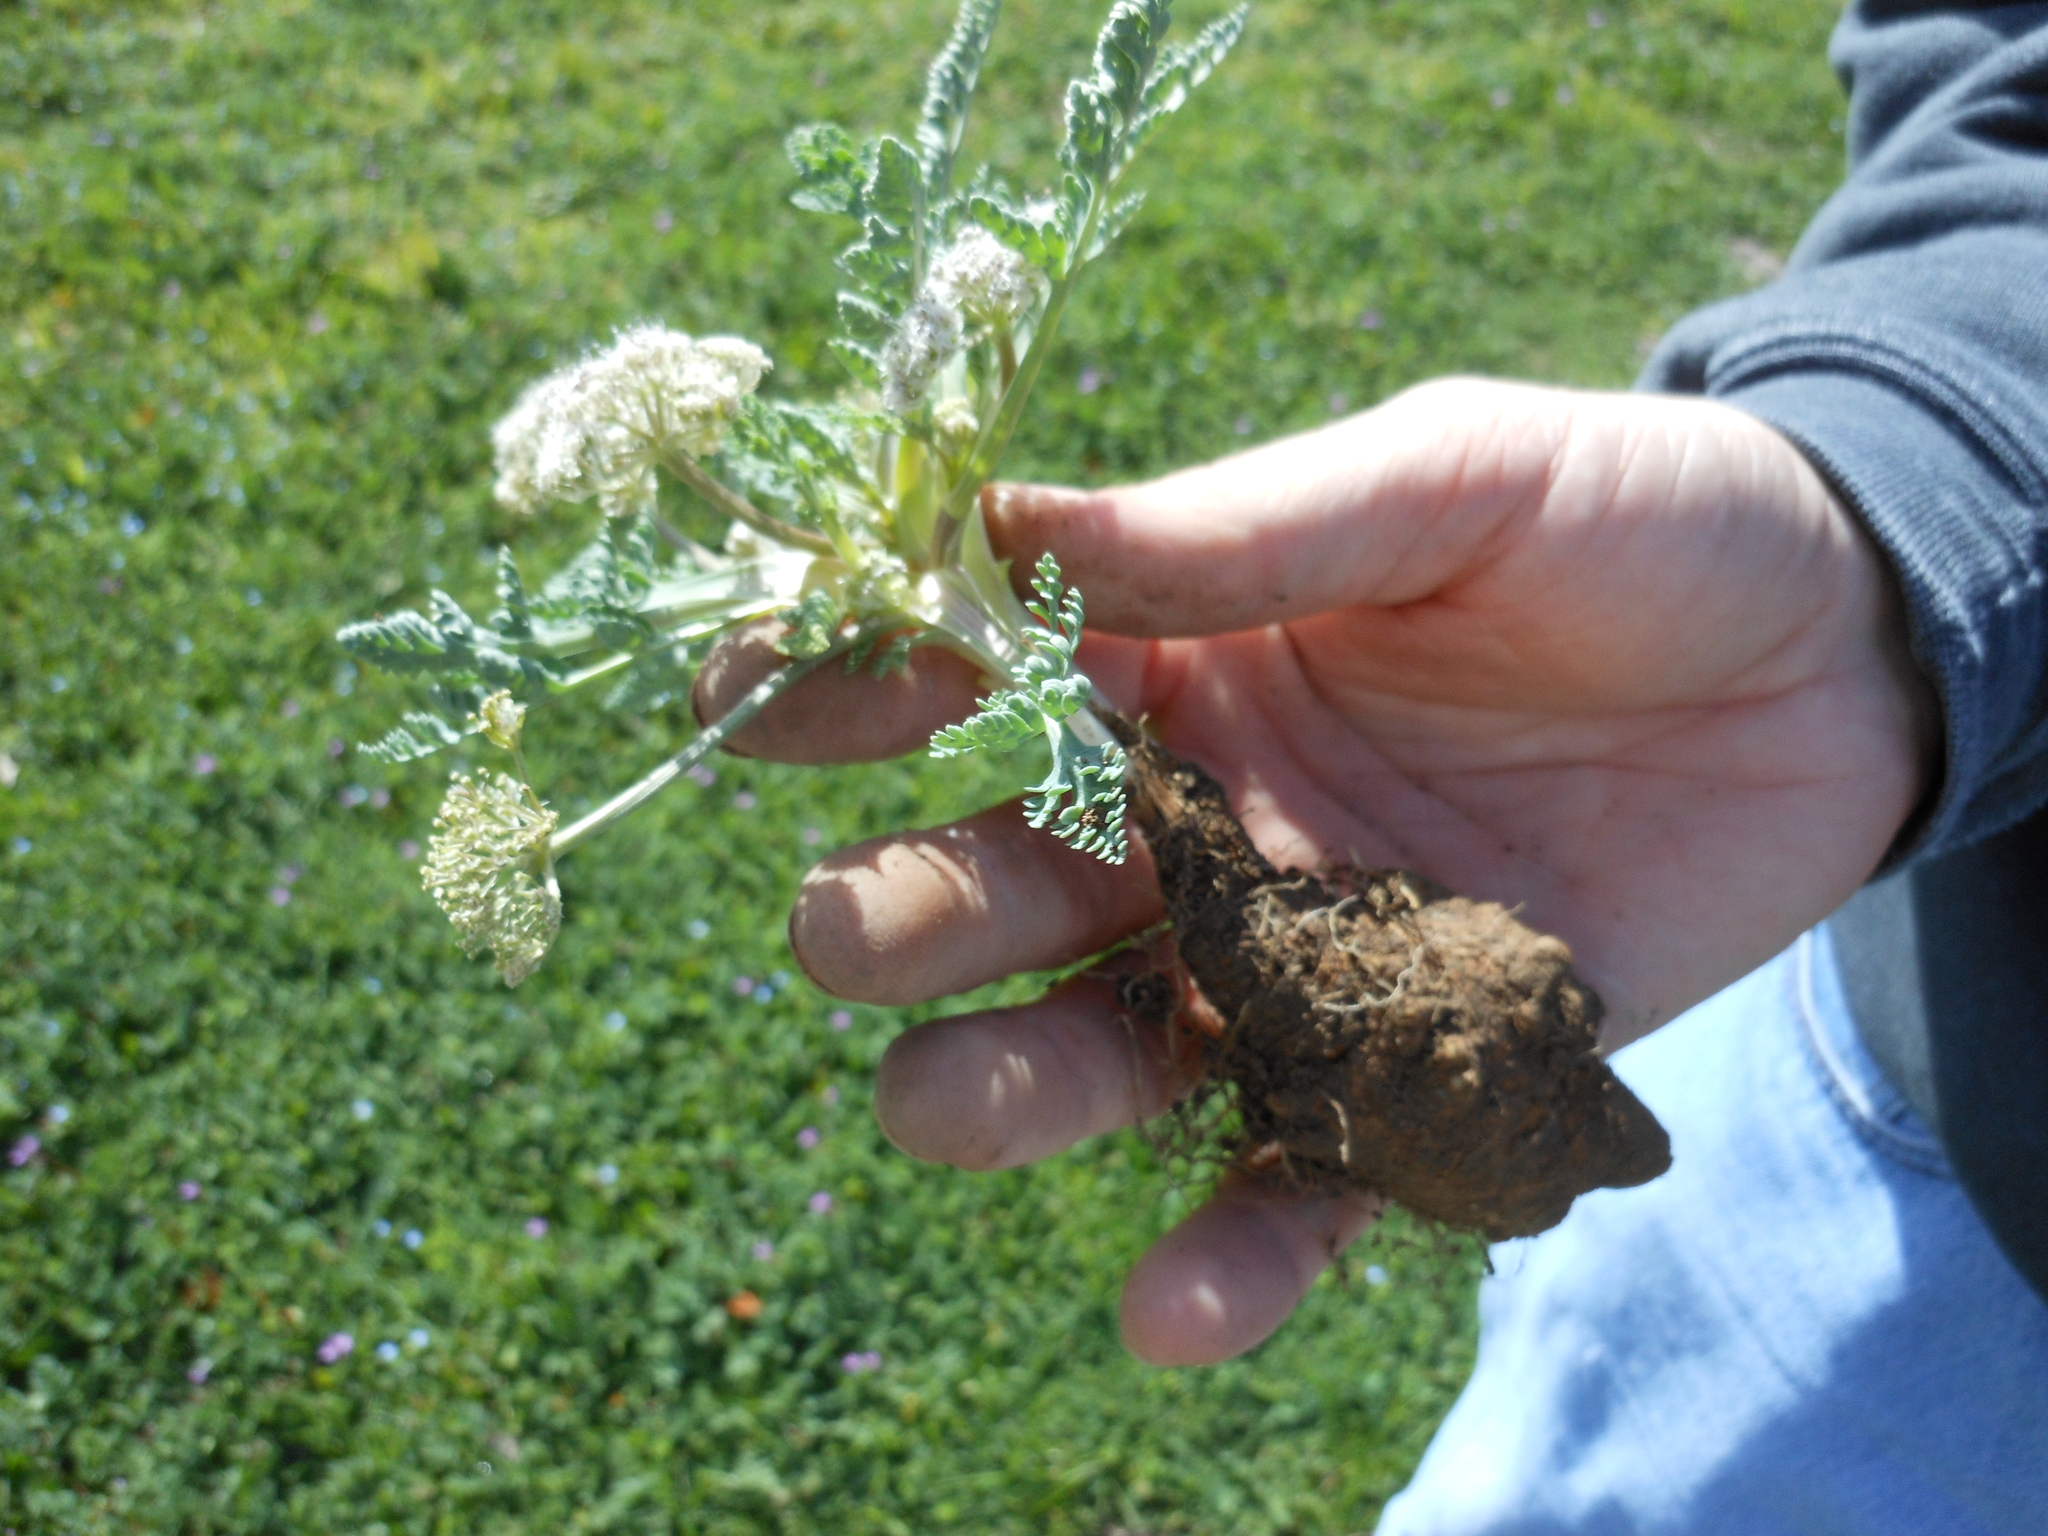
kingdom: Plantae
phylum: Tracheophyta
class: Magnoliopsida
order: Apiales
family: Apiaceae
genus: Vesper
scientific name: Vesper macrorhizus
